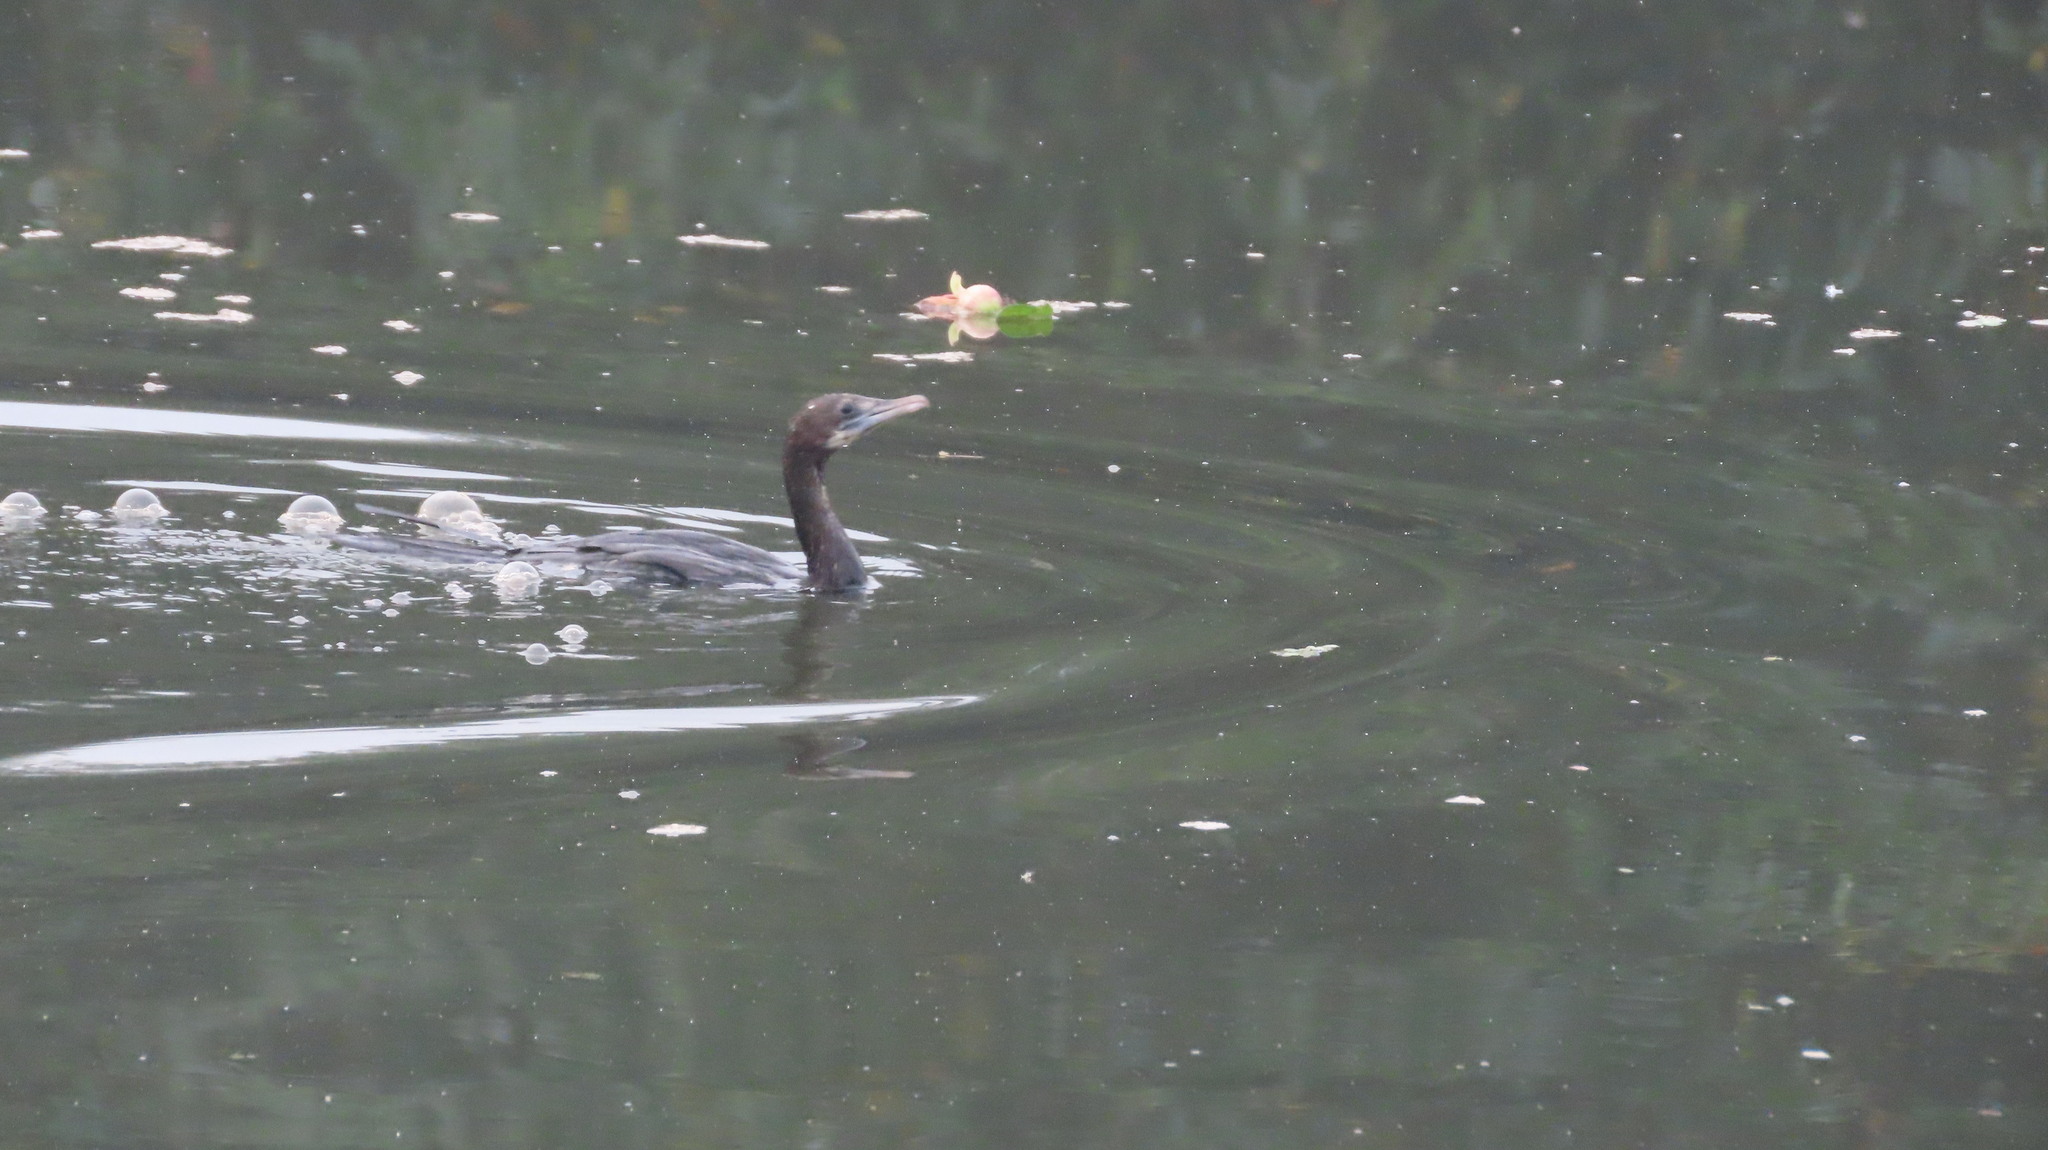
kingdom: Animalia
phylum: Chordata
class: Aves
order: Suliformes
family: Phalacrocoracidae
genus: Microcarbo
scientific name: Microcarbo niger
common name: Little cormorant
